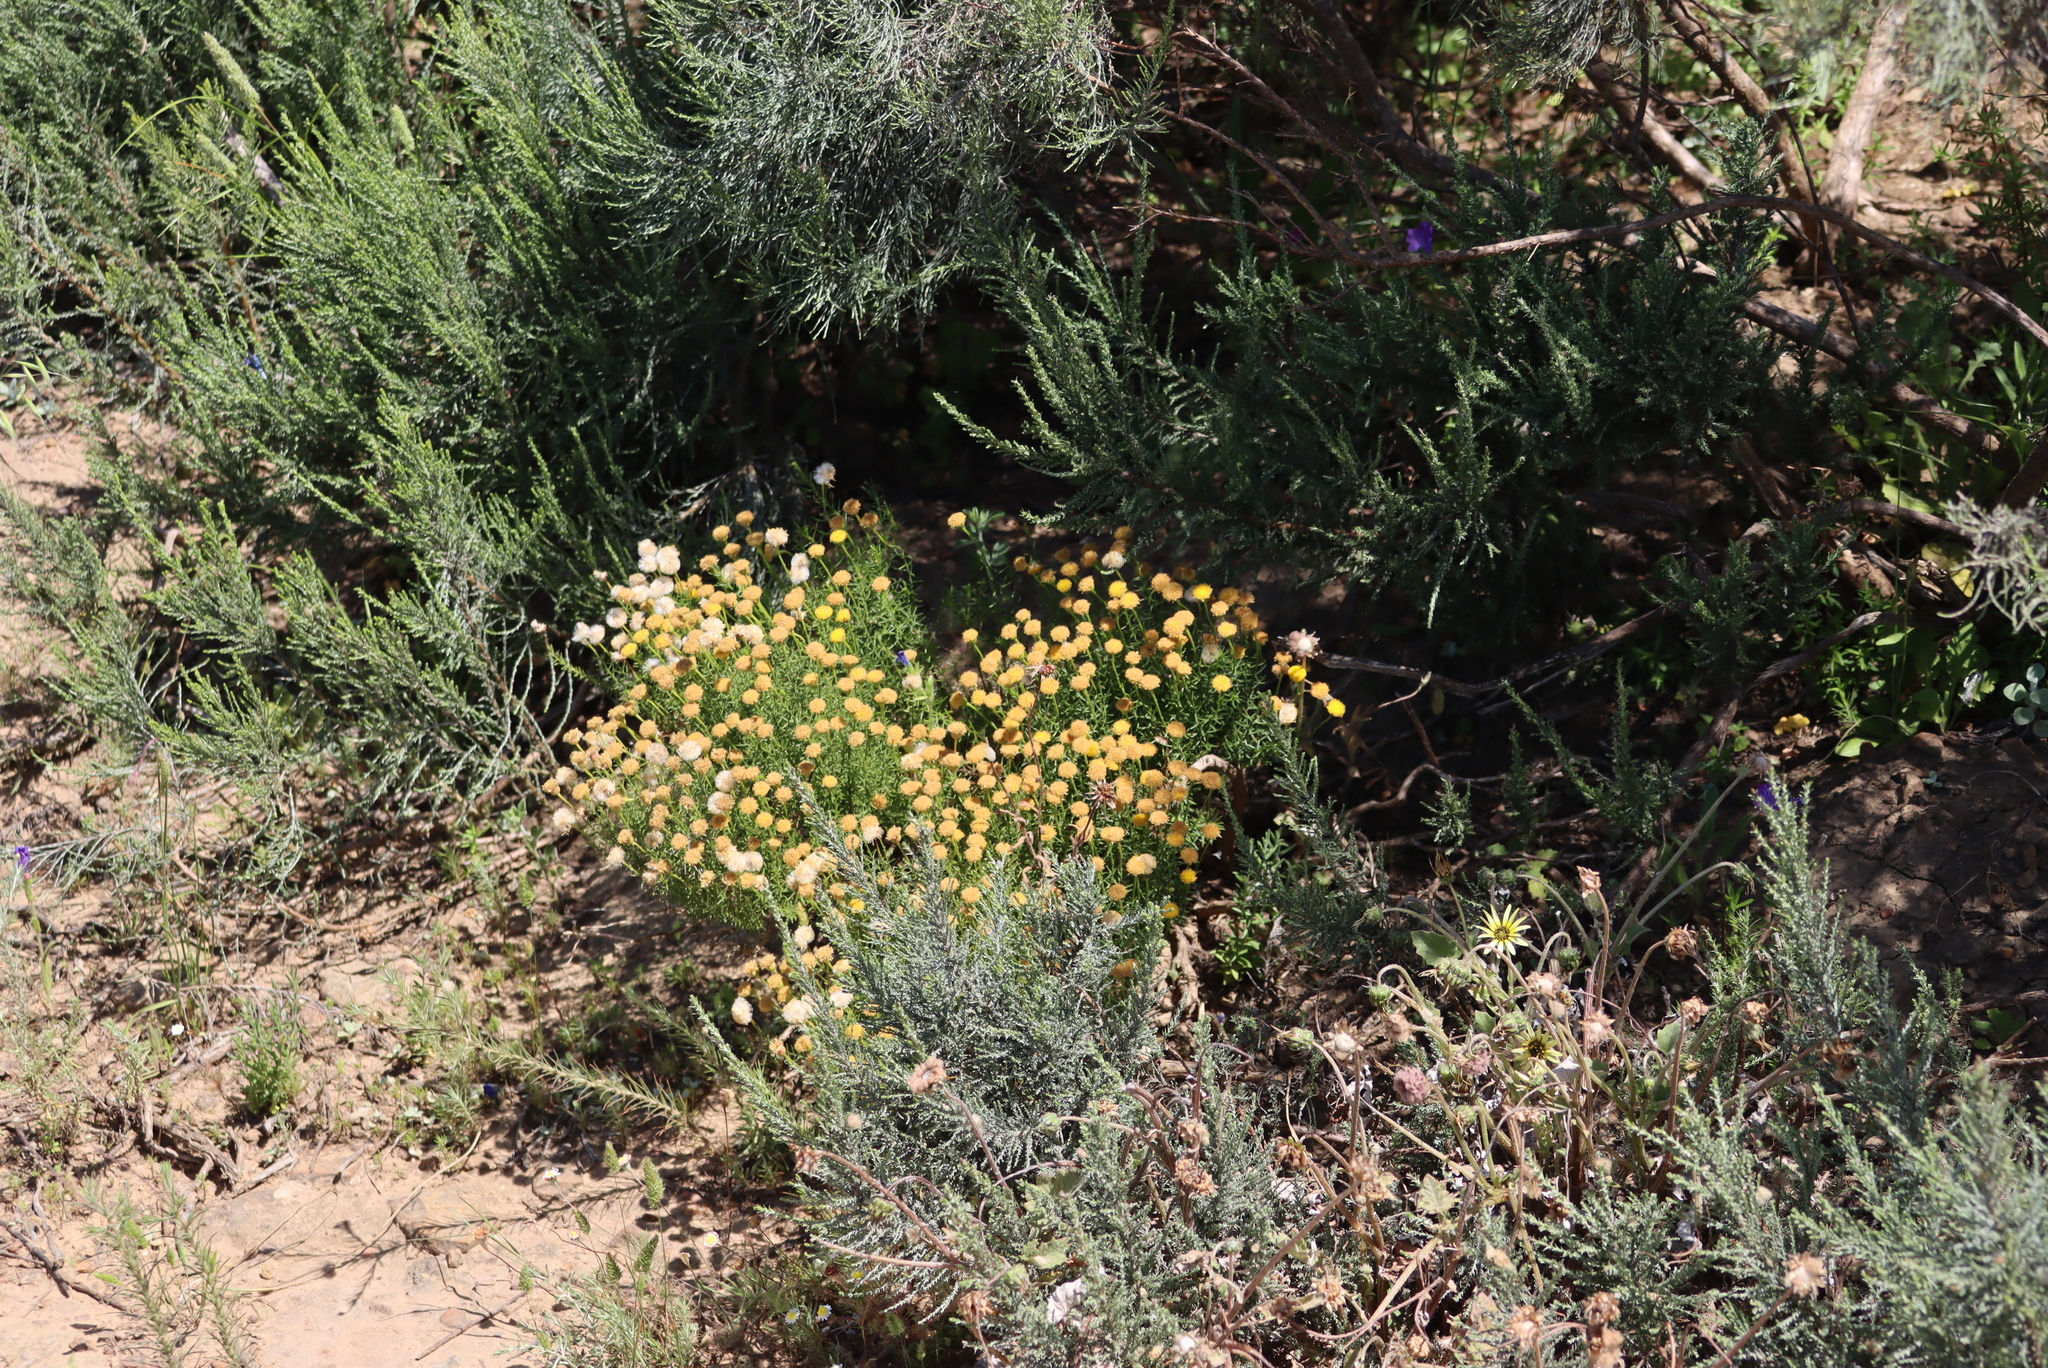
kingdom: Plantae
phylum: Tracheophyta
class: Magnoliopsida
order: Asterales
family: Asteraceae
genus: Chrysocoma
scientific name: Chrysocoma ciliata
